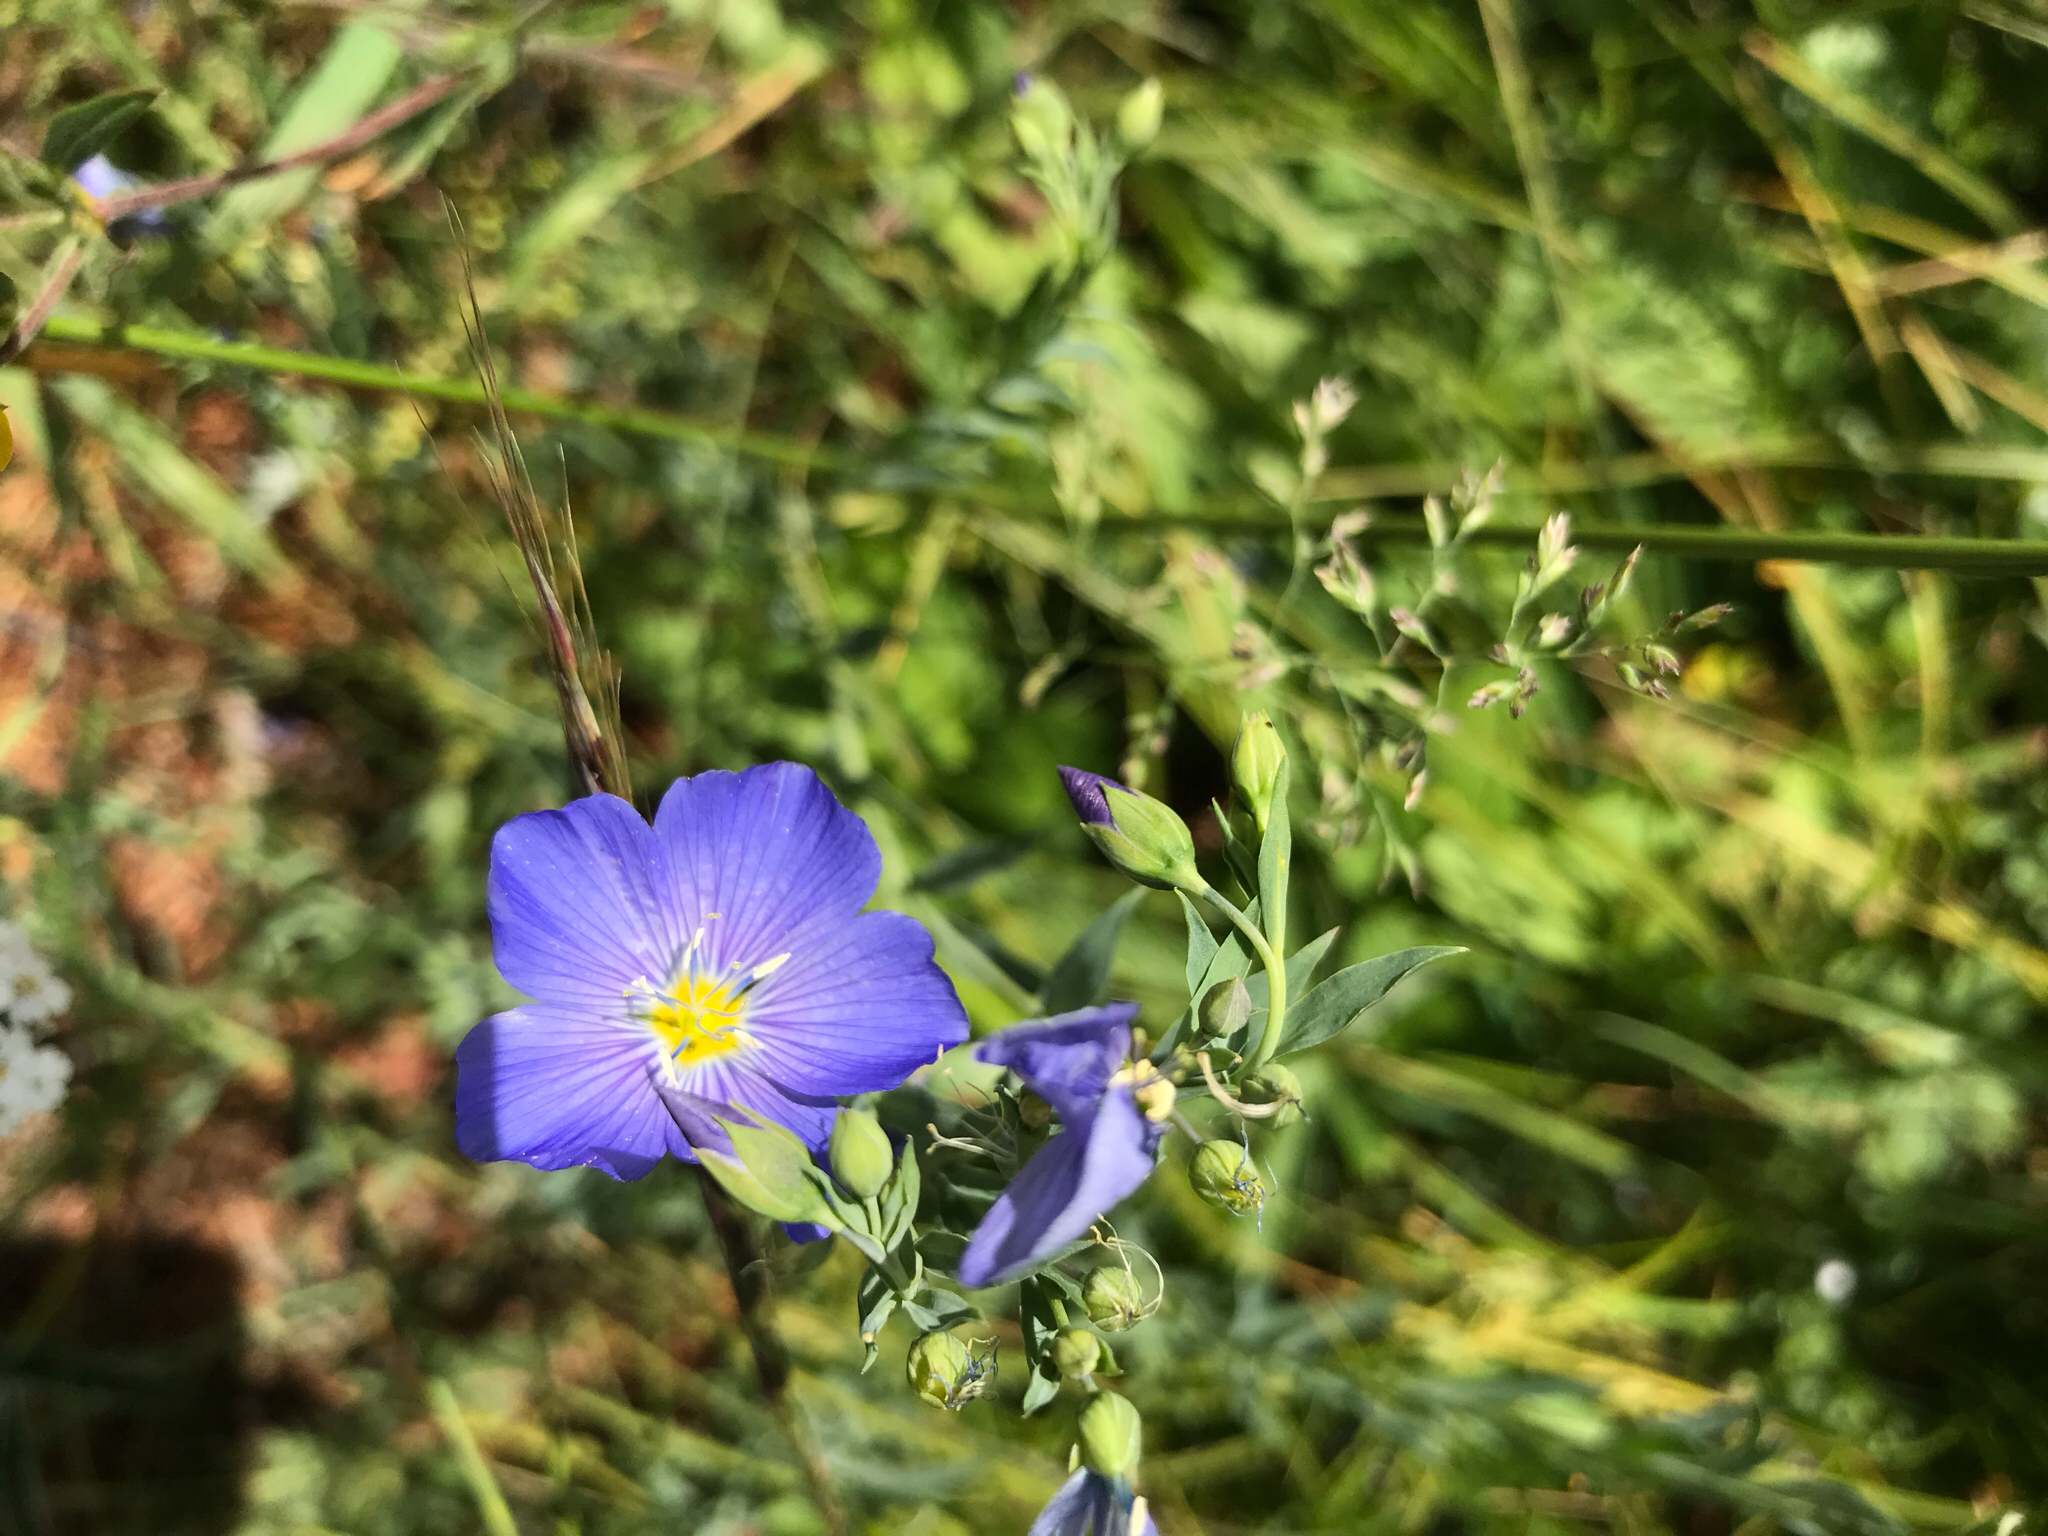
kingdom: Plantae
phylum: Tracheophyta
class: Magnoliopsida
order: Malpighiales
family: Linaceae
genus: Linum
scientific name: Linum lewisii
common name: Prairie flax
